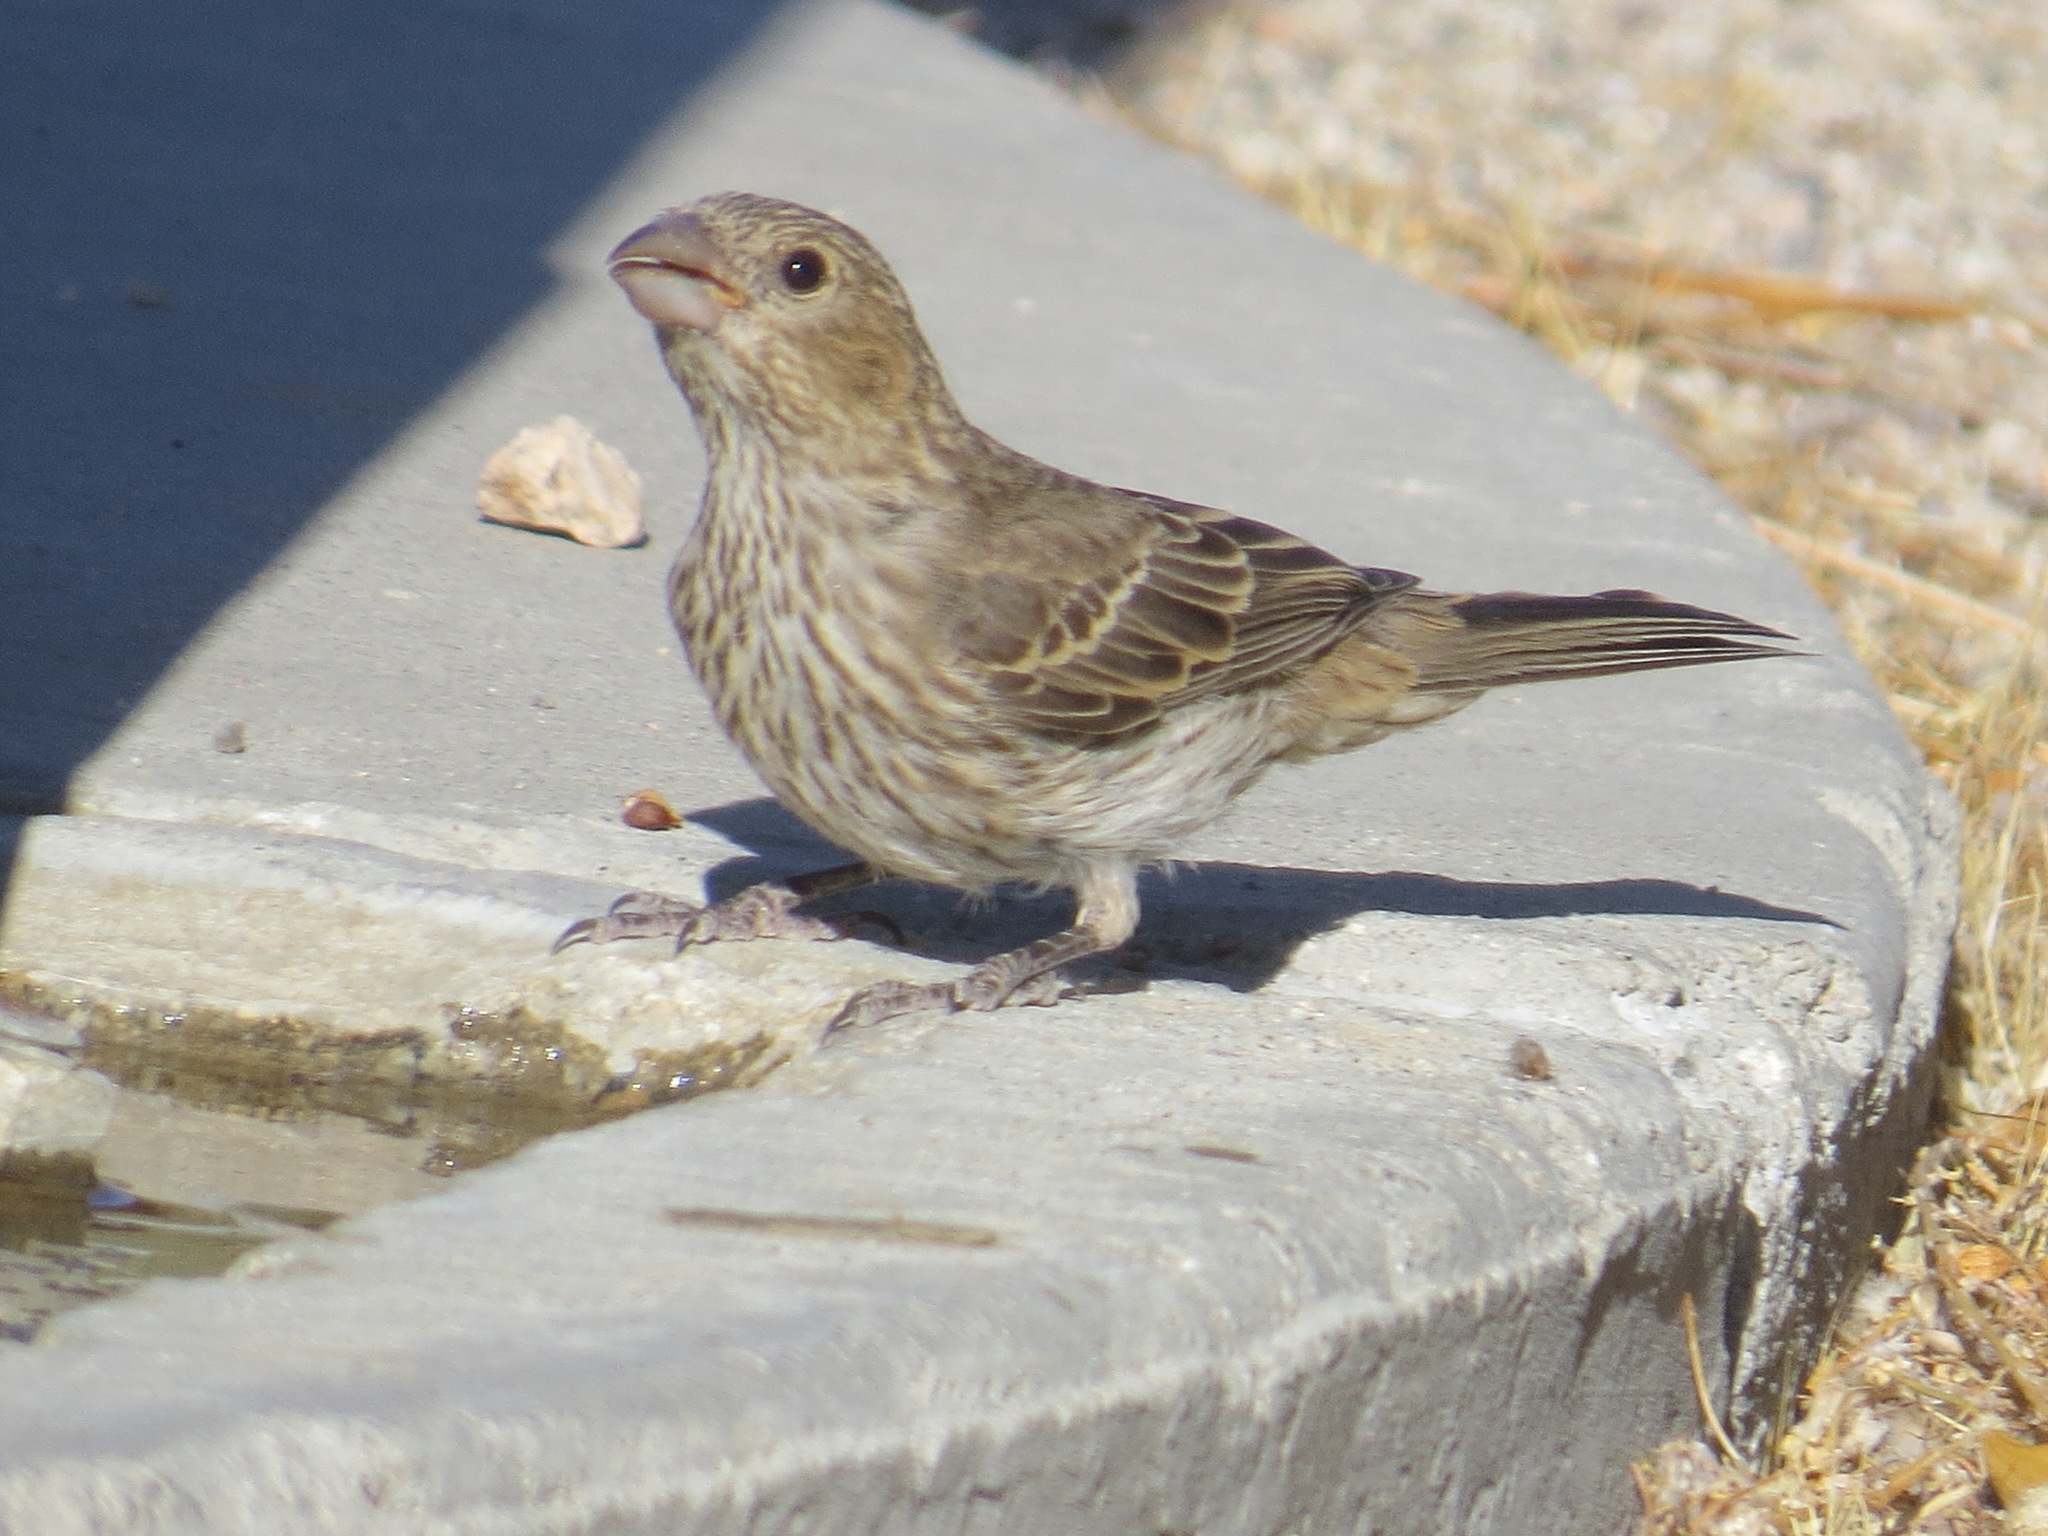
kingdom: Animalia
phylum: Chordata
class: Aves
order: Passeriformes
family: Fringillidae
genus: Haemorhous
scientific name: Haemorhous mexicanus
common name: House finch
